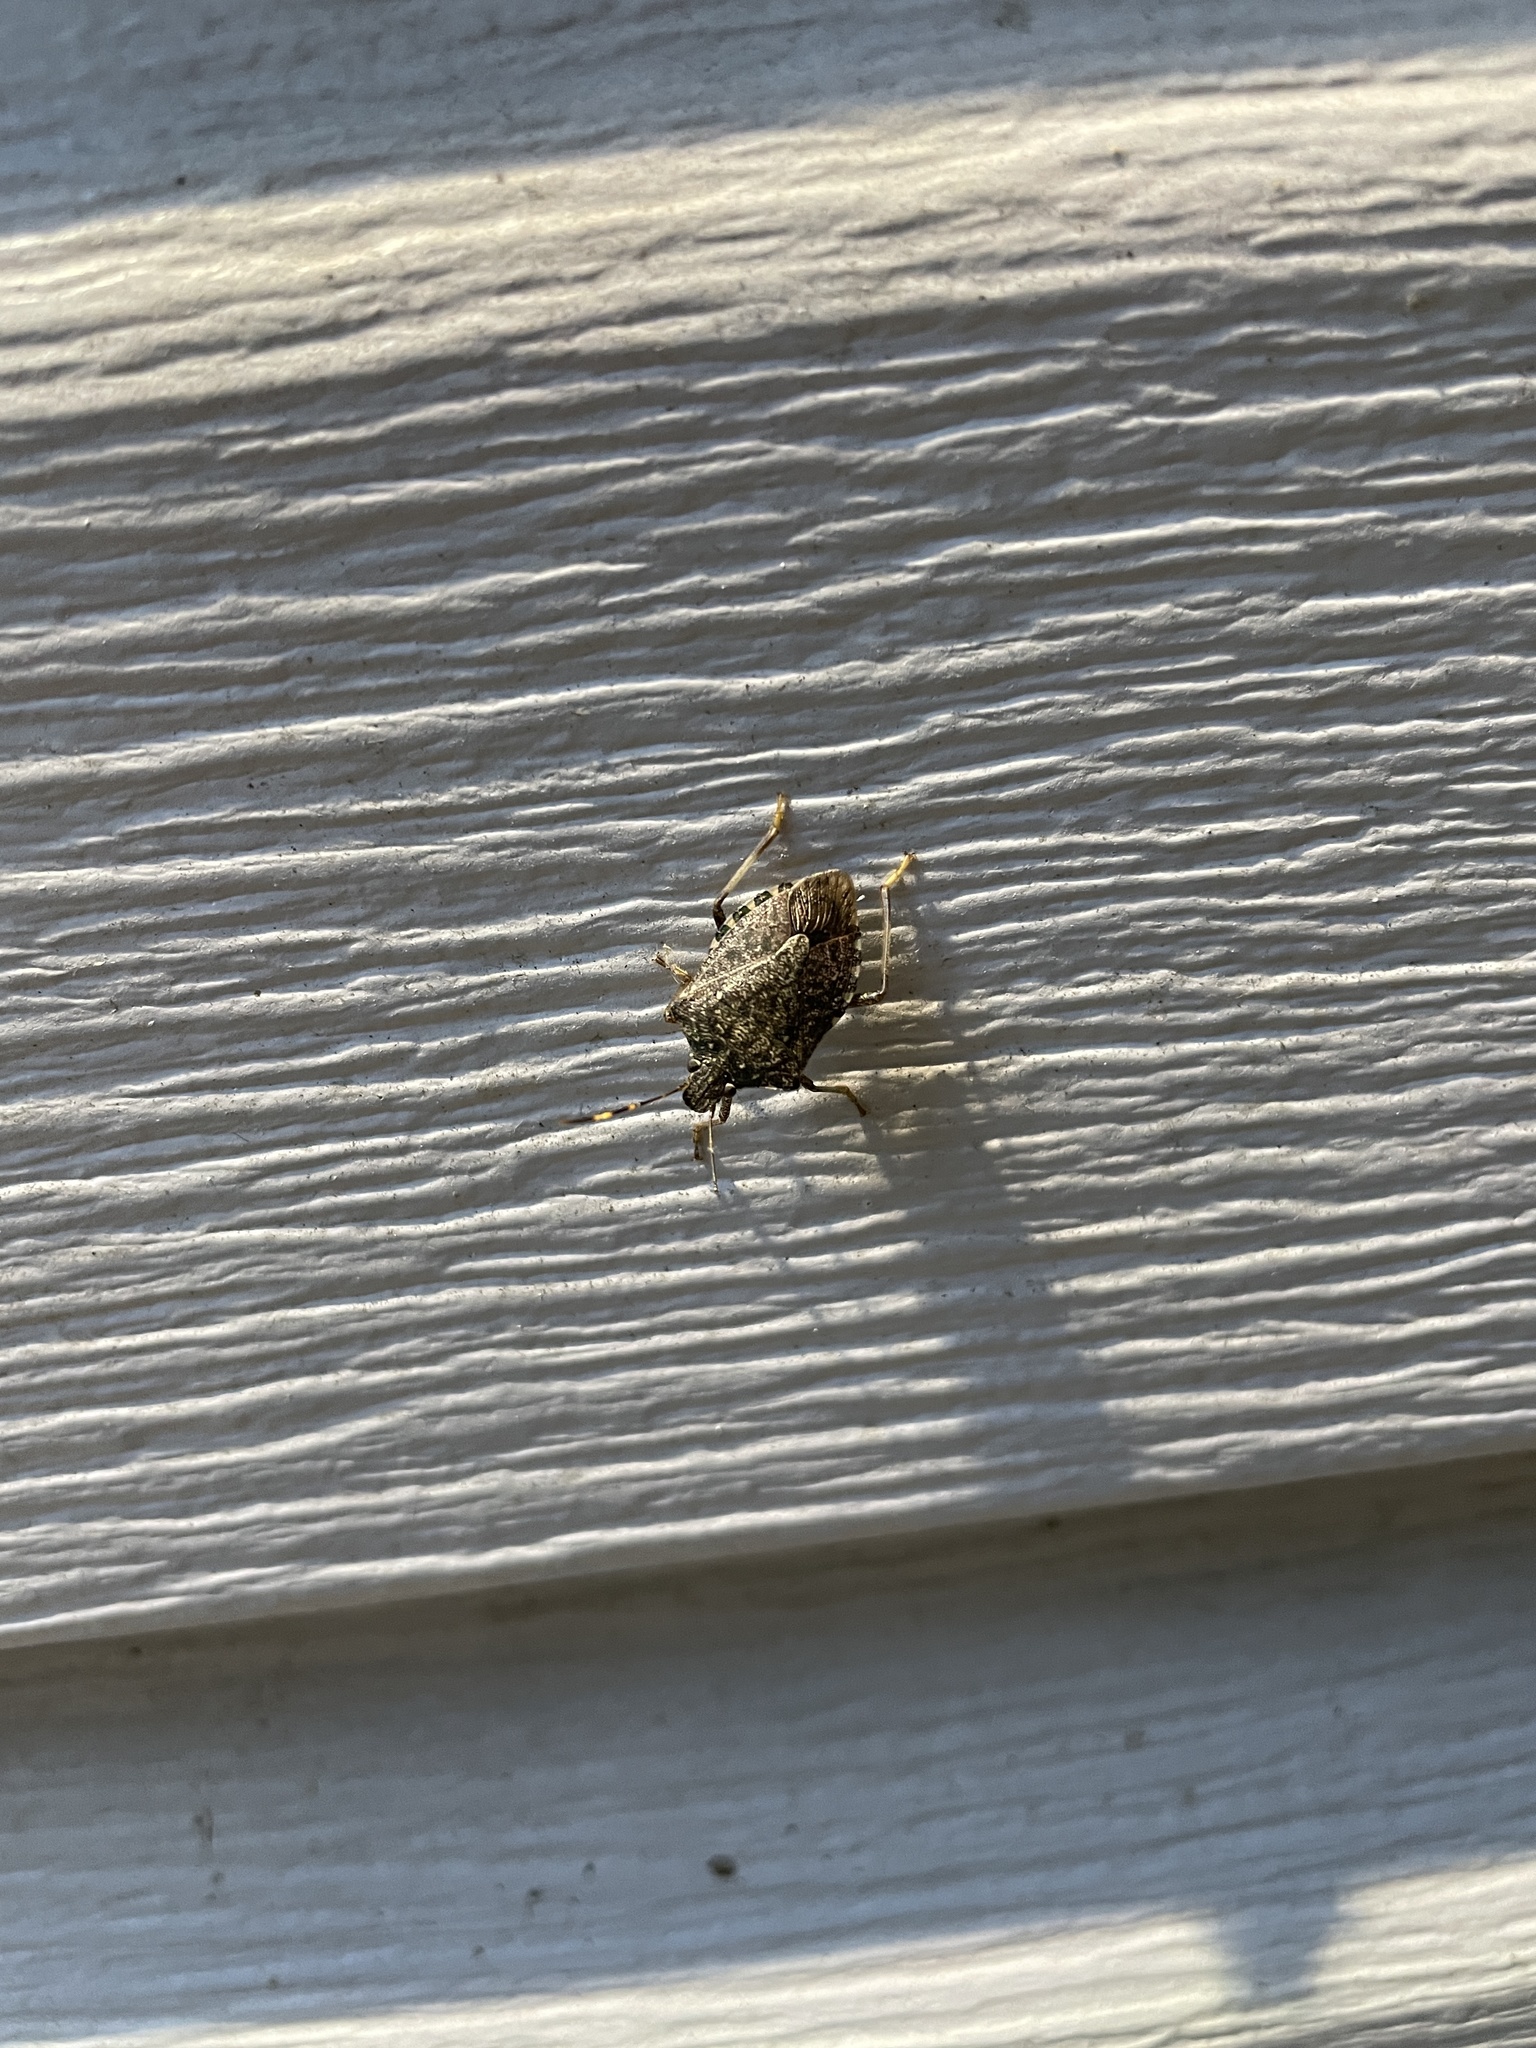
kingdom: Animalia
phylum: Arthropoda
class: Insecta
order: Hemiptera
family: Pentatomidae
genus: Halyomorpha
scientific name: Halyomorpha halys
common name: Brown marmorated stink bug
